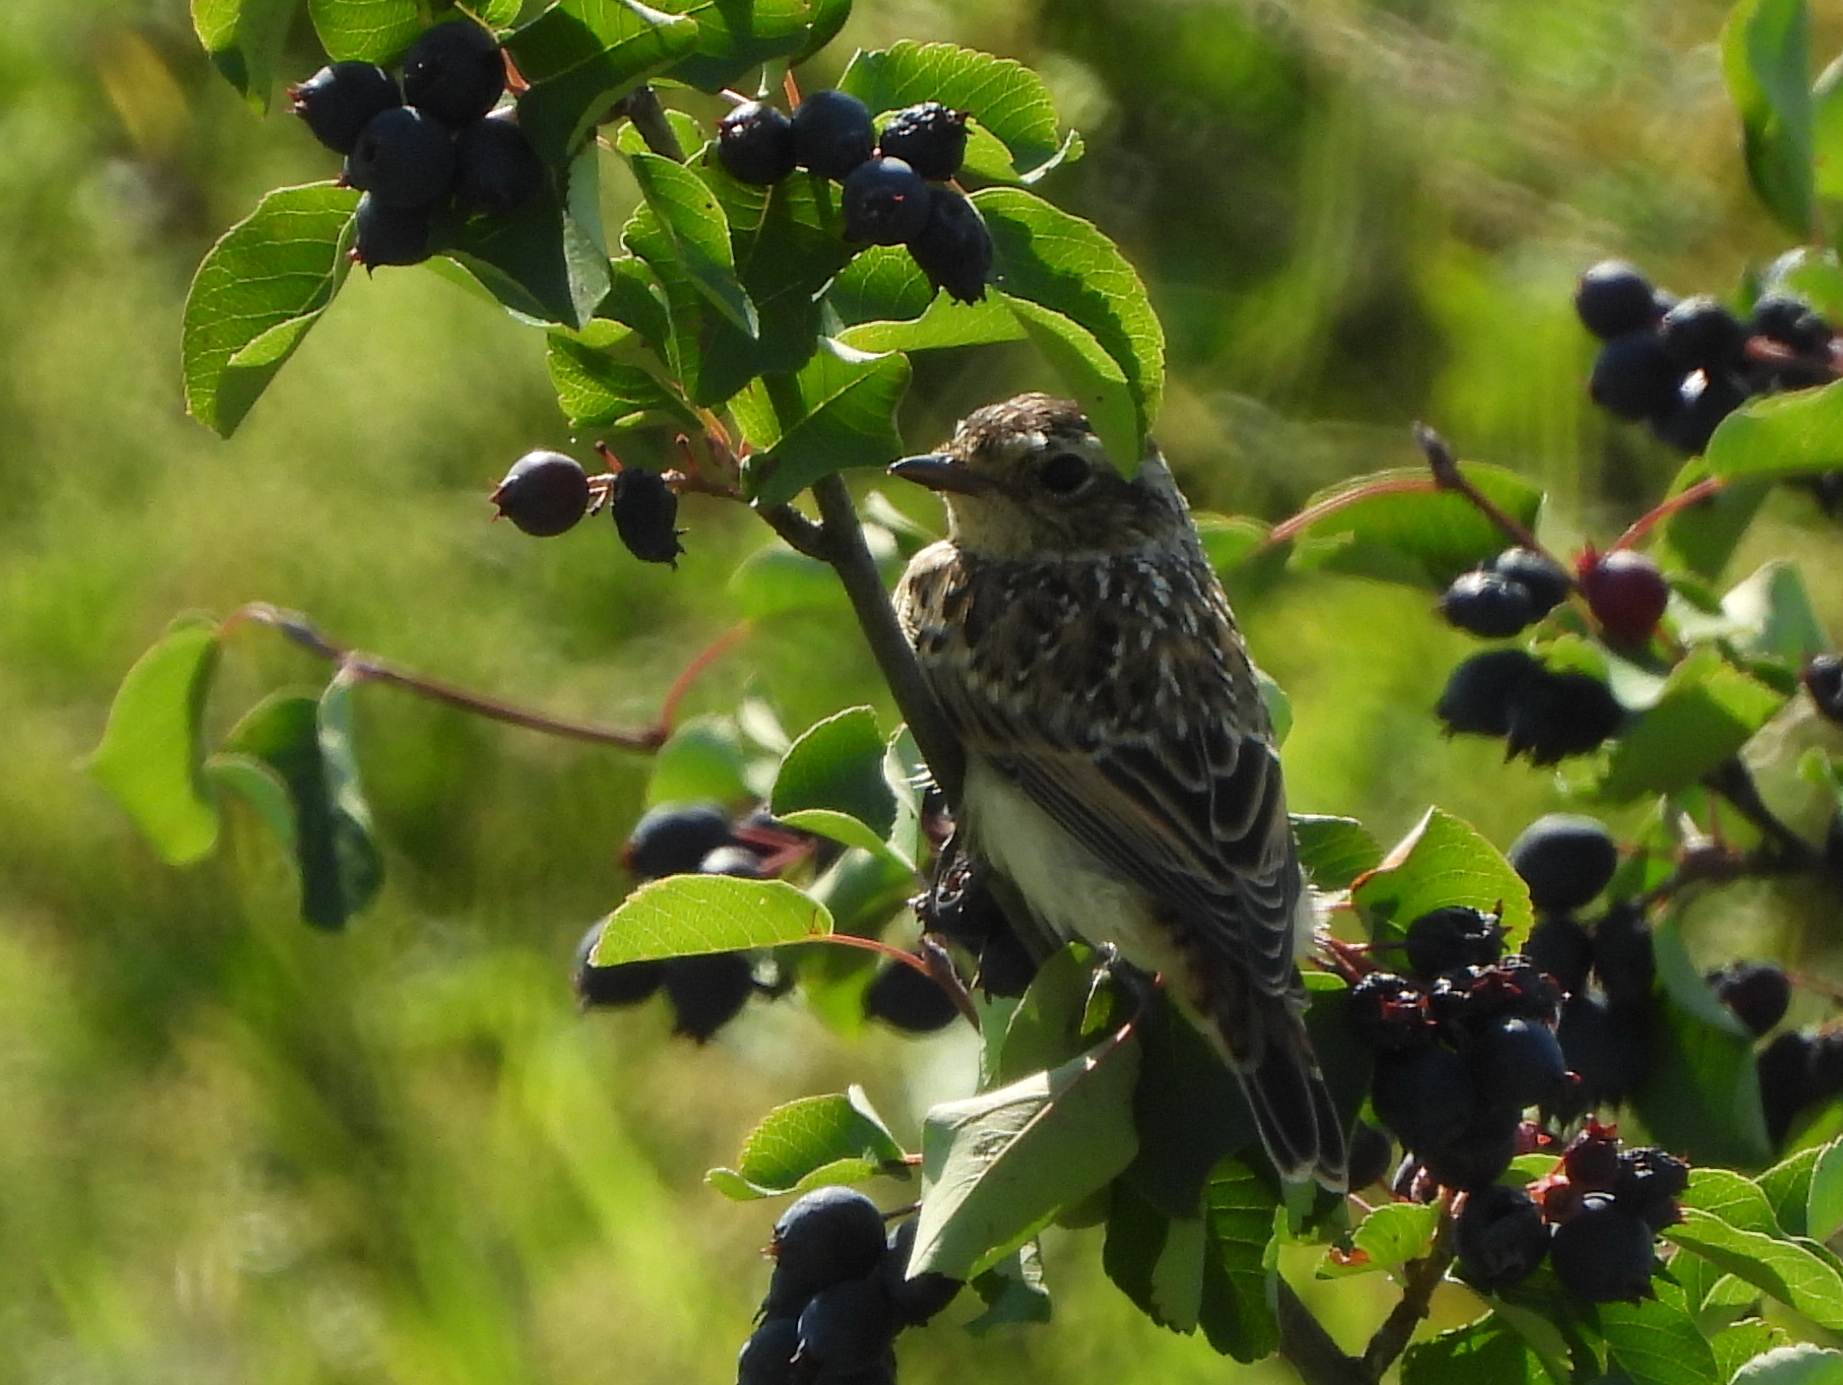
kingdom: Animalia
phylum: Chordata
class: Aves
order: Passeriformes
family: Muscicapidae
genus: Saxicola
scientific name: Saxicola rubetra
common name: Whinchat
